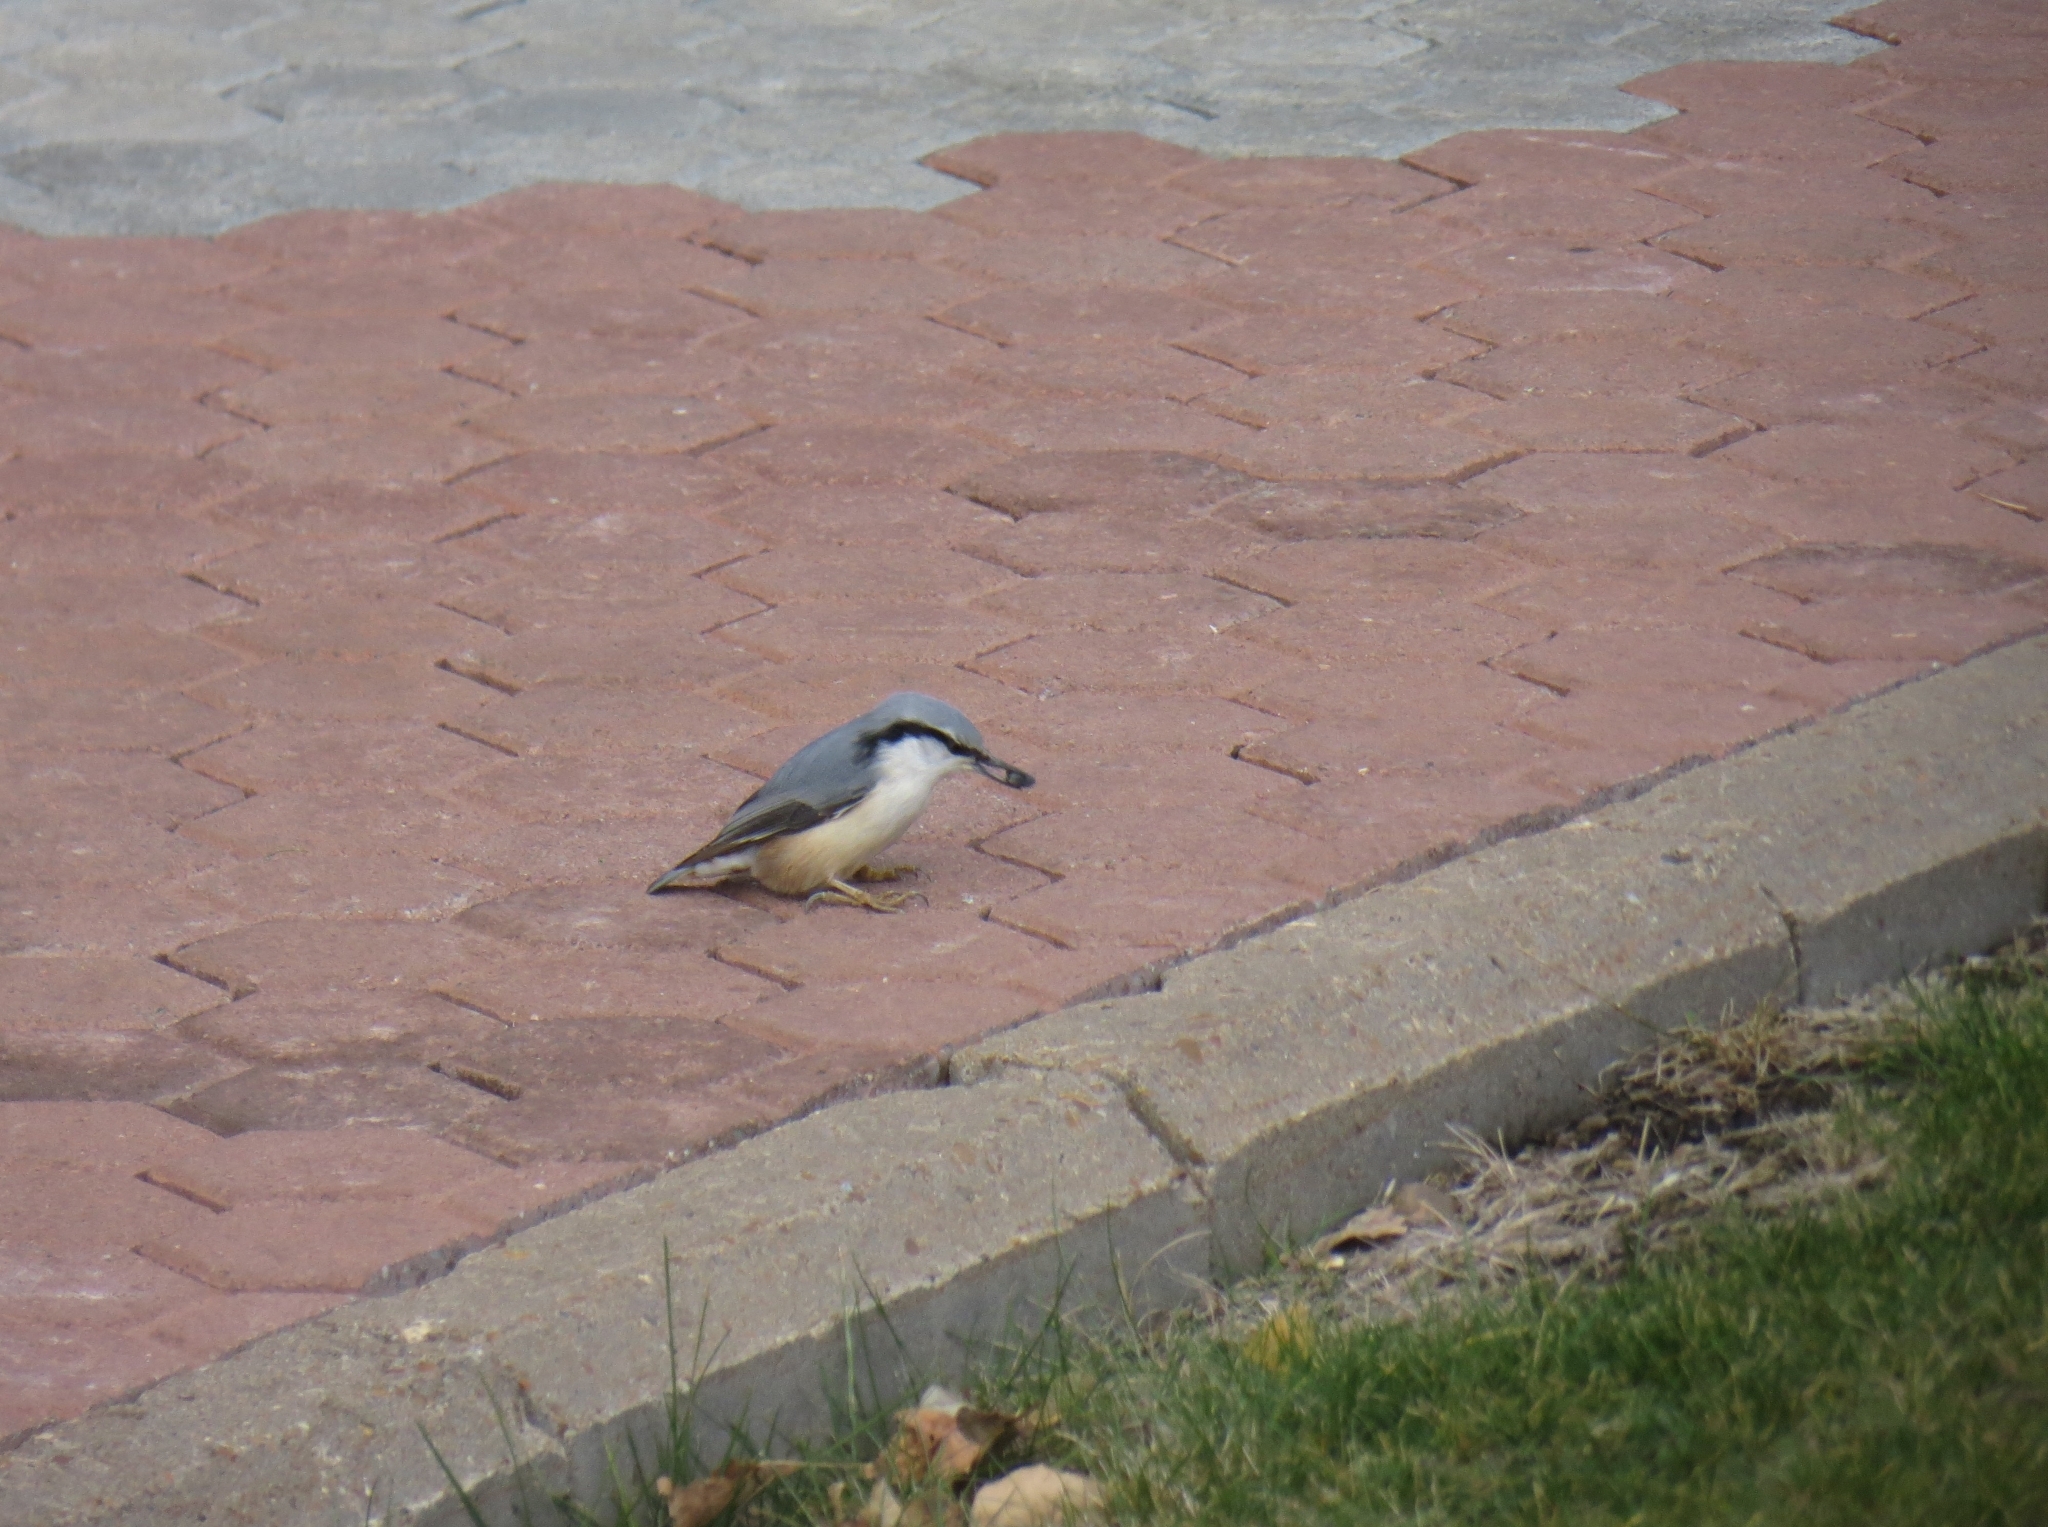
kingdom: Animalia
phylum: Chordata
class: Aves
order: Passeriformes
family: Sittidae
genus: Sitta
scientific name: Sitta europaea
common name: Eurasian nuthatch
